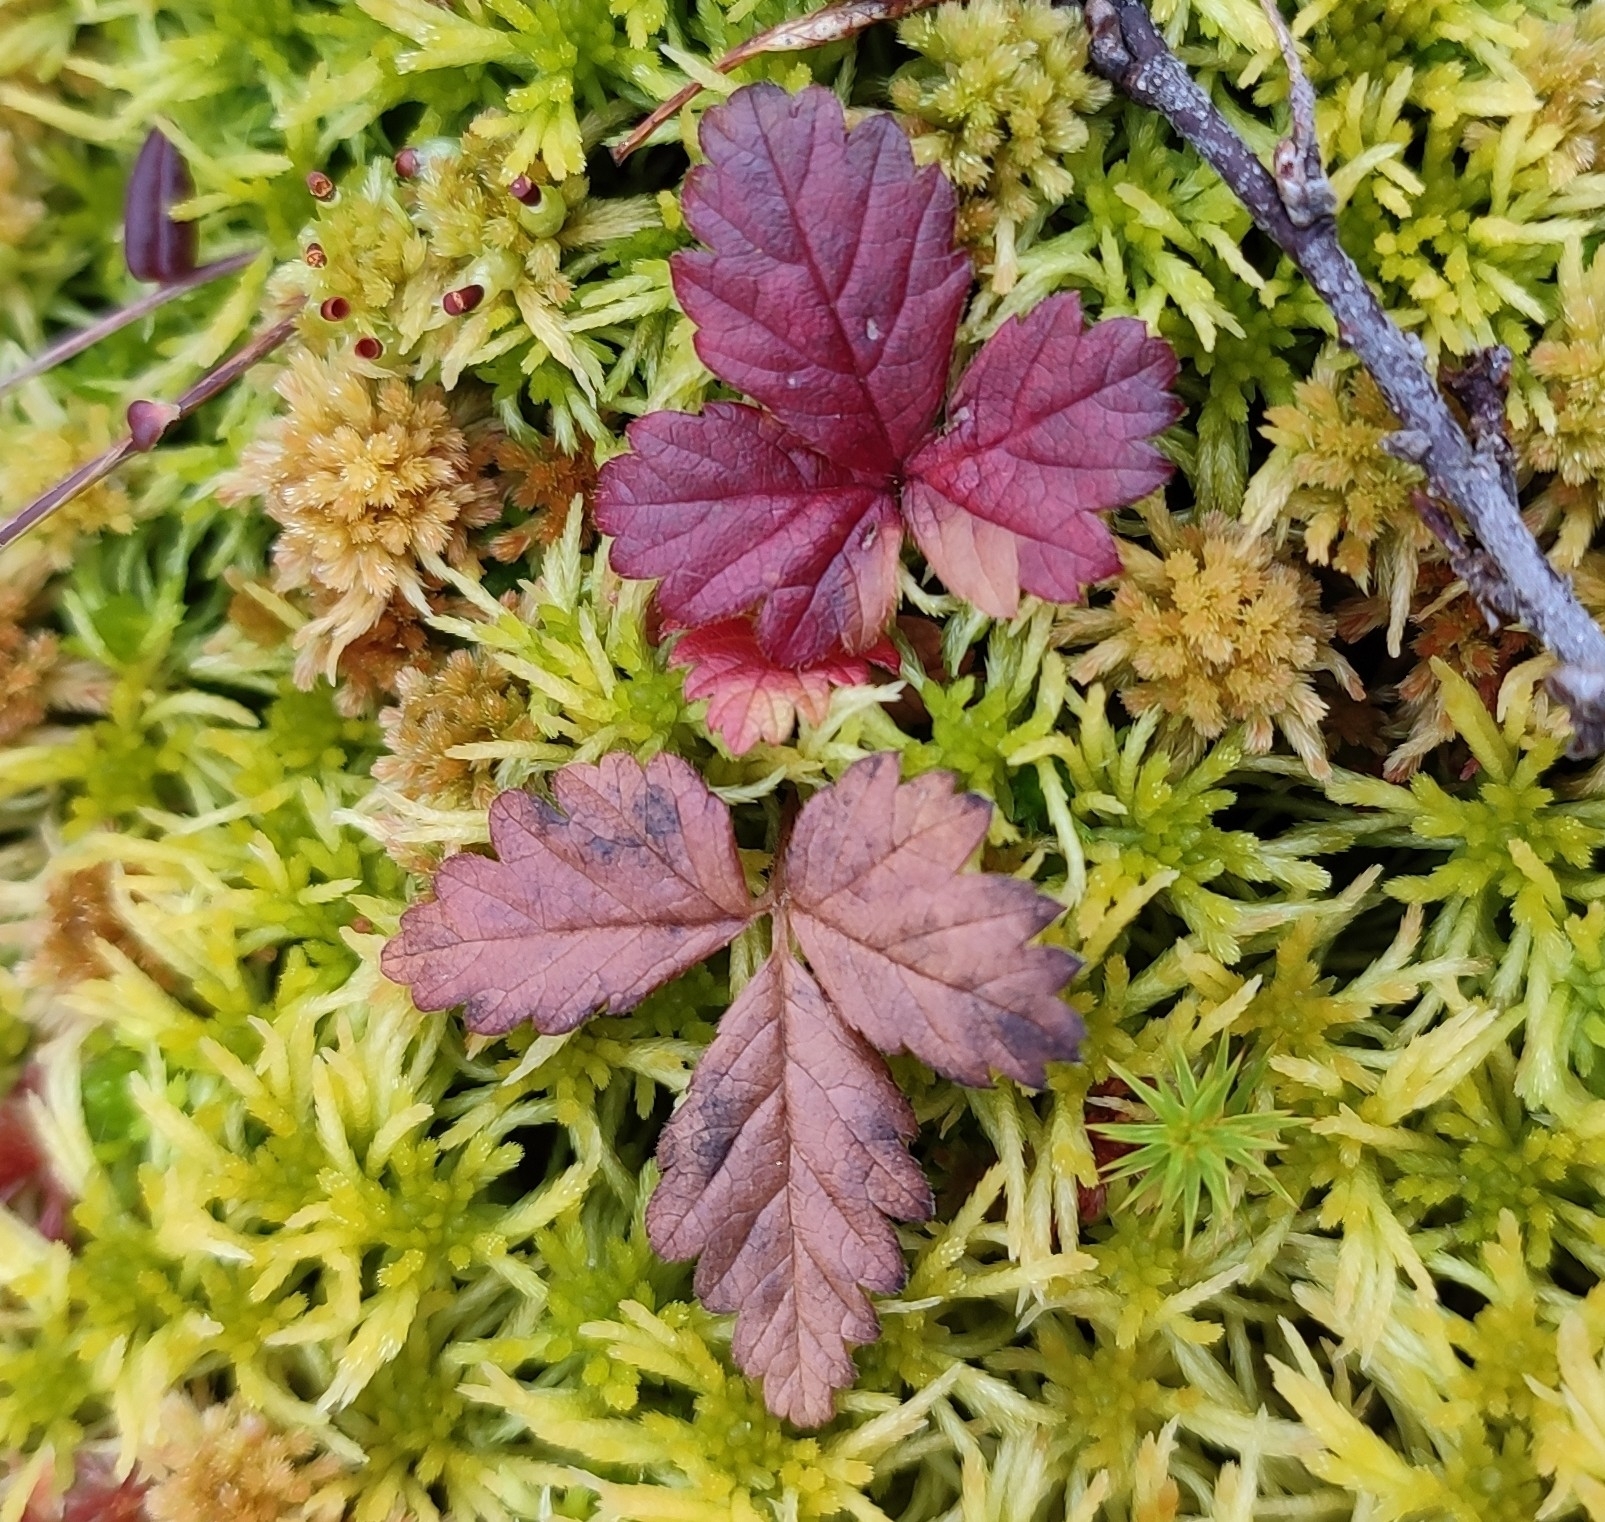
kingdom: Plantae
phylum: Tracheophyta
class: Magnoliopsida
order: Rosales
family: Rosaceae
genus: Rubus
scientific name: Rubus arcticus
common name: Arctic bramble
